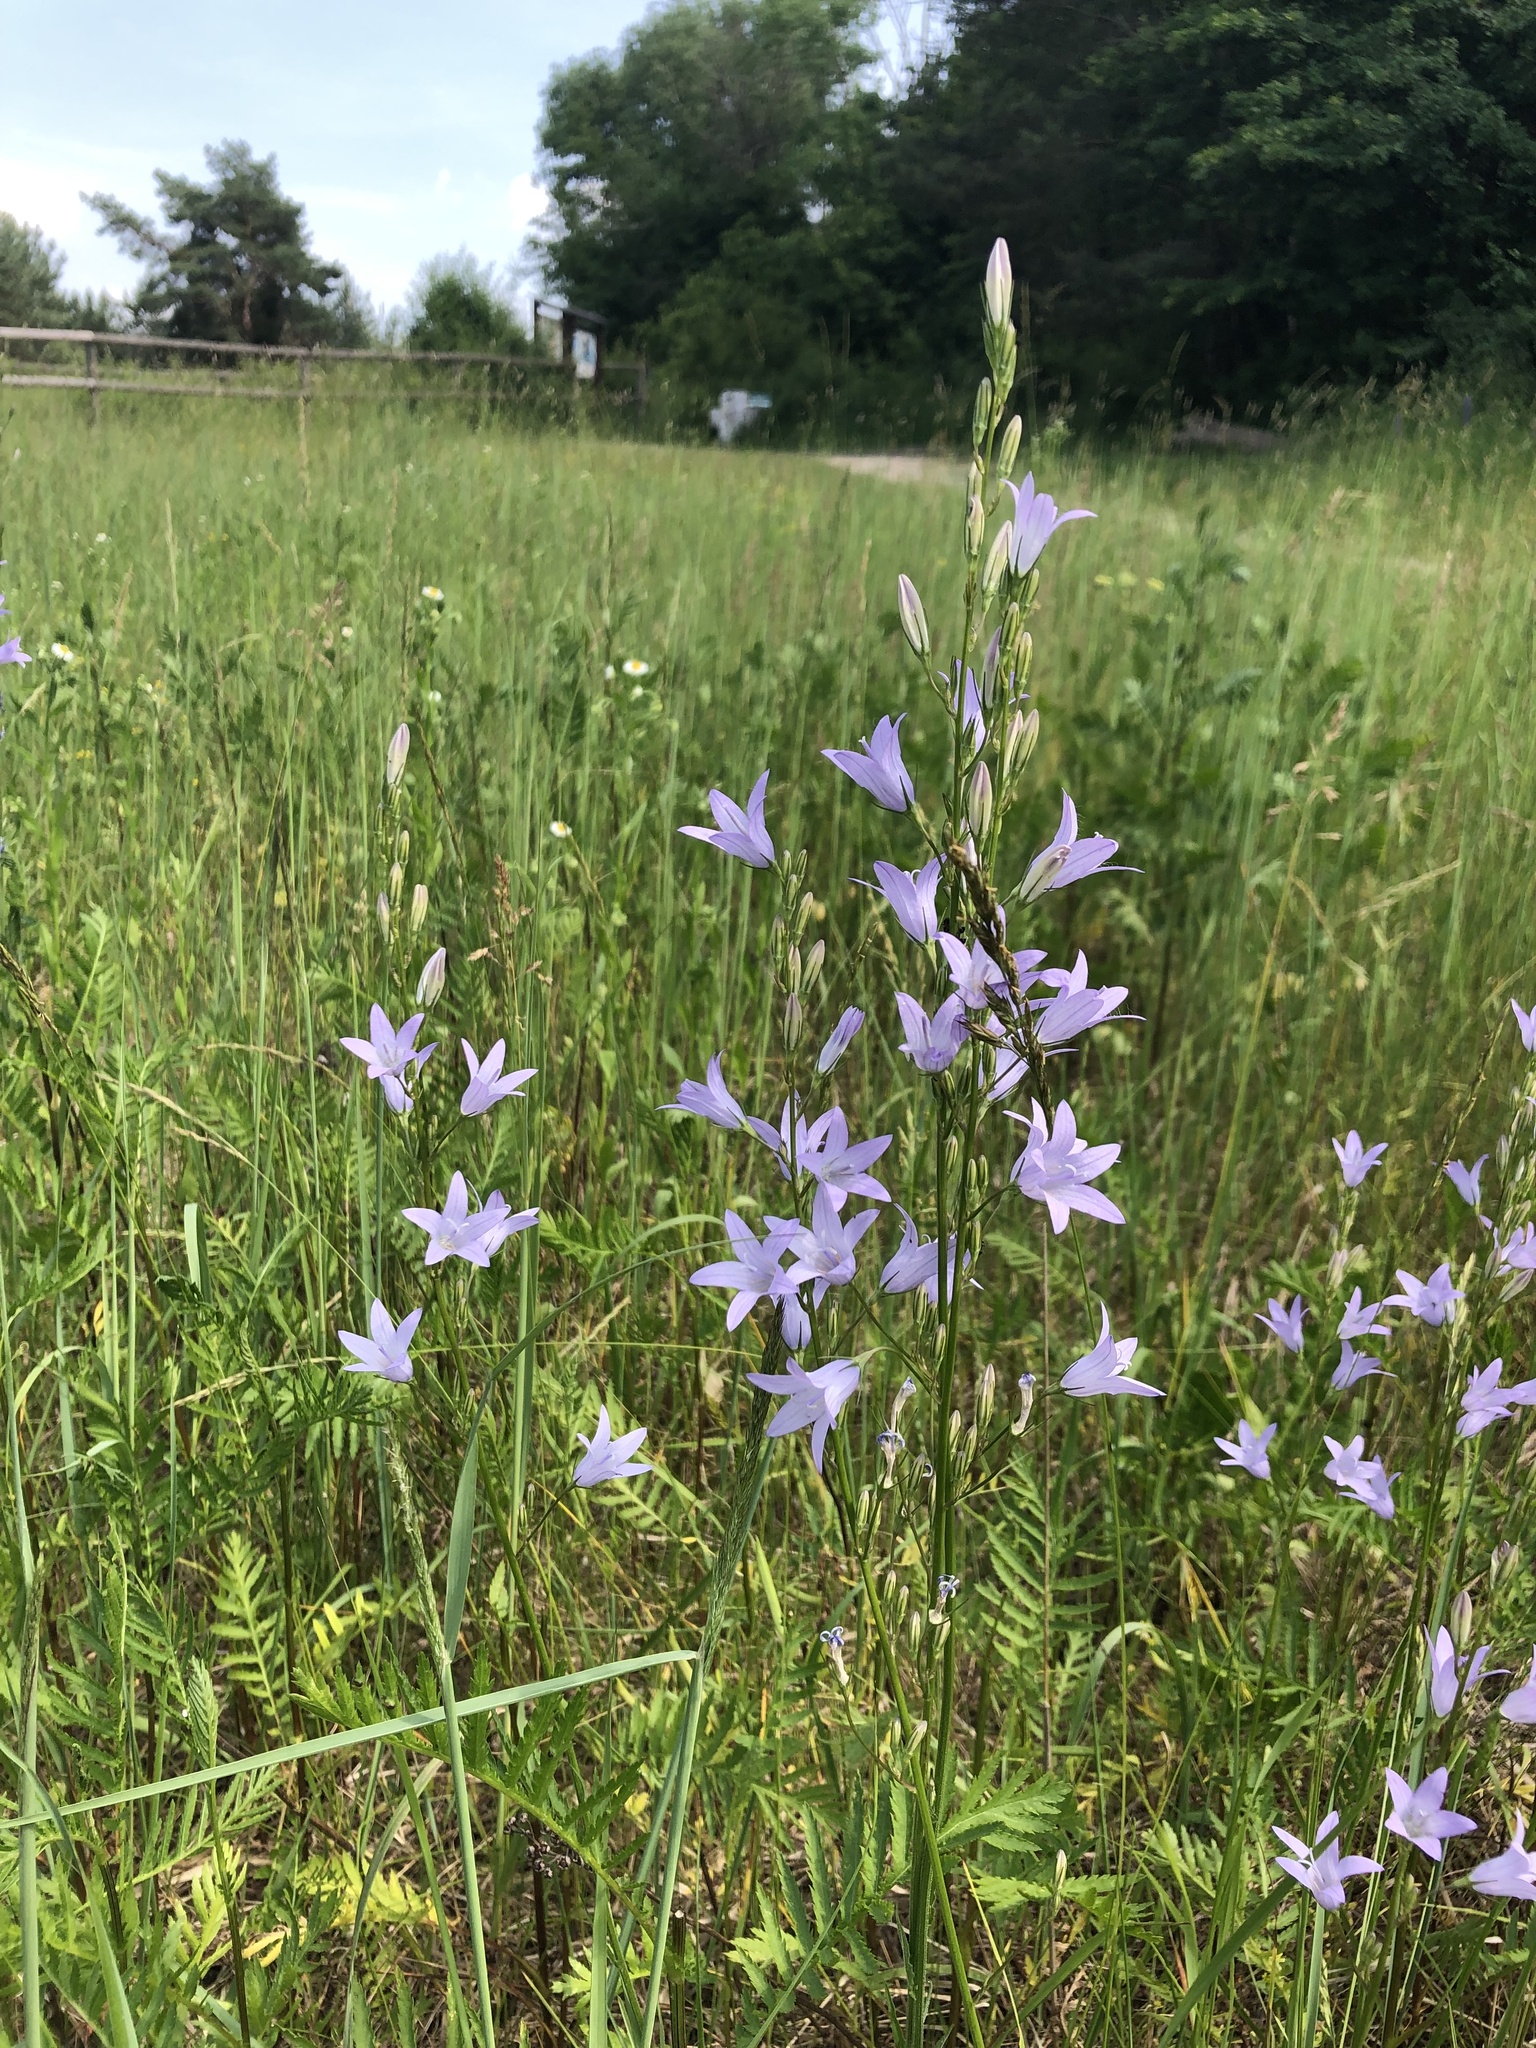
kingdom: Plantae
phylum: Tracheophyta
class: Magnoliopsida
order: Asterales
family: Campanulaceae
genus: Campanula
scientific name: Campanula rapunculus
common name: Rampion bellflower
